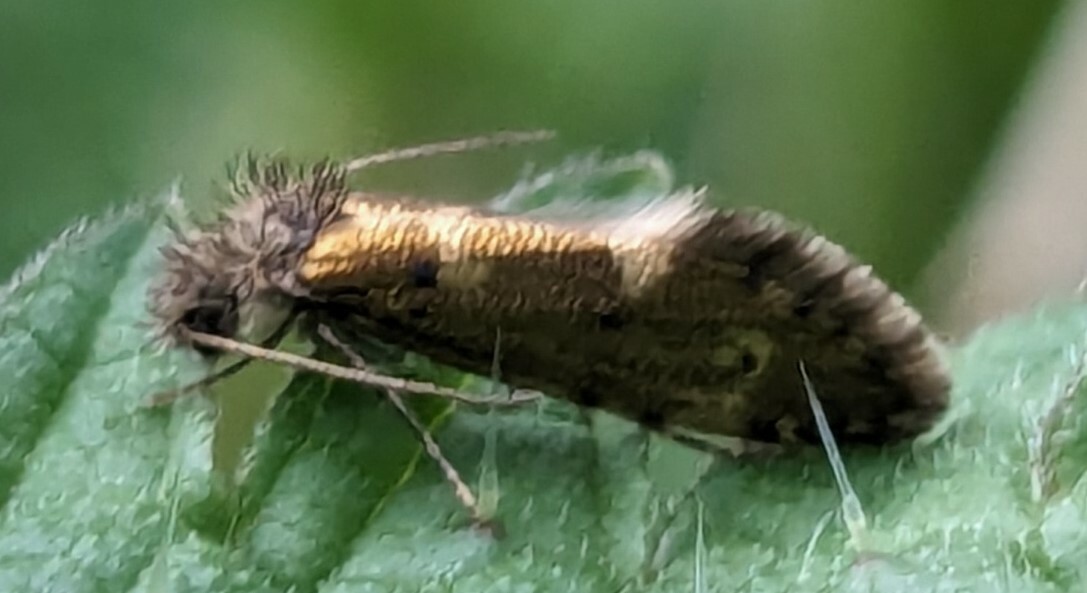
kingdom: Animalia
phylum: Arthropoda
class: Insecta
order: Lepidoptera
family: Eriocraniidae
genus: Dyseriocrania
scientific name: Dyseriocrania subpurpurella
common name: Common oak purple
